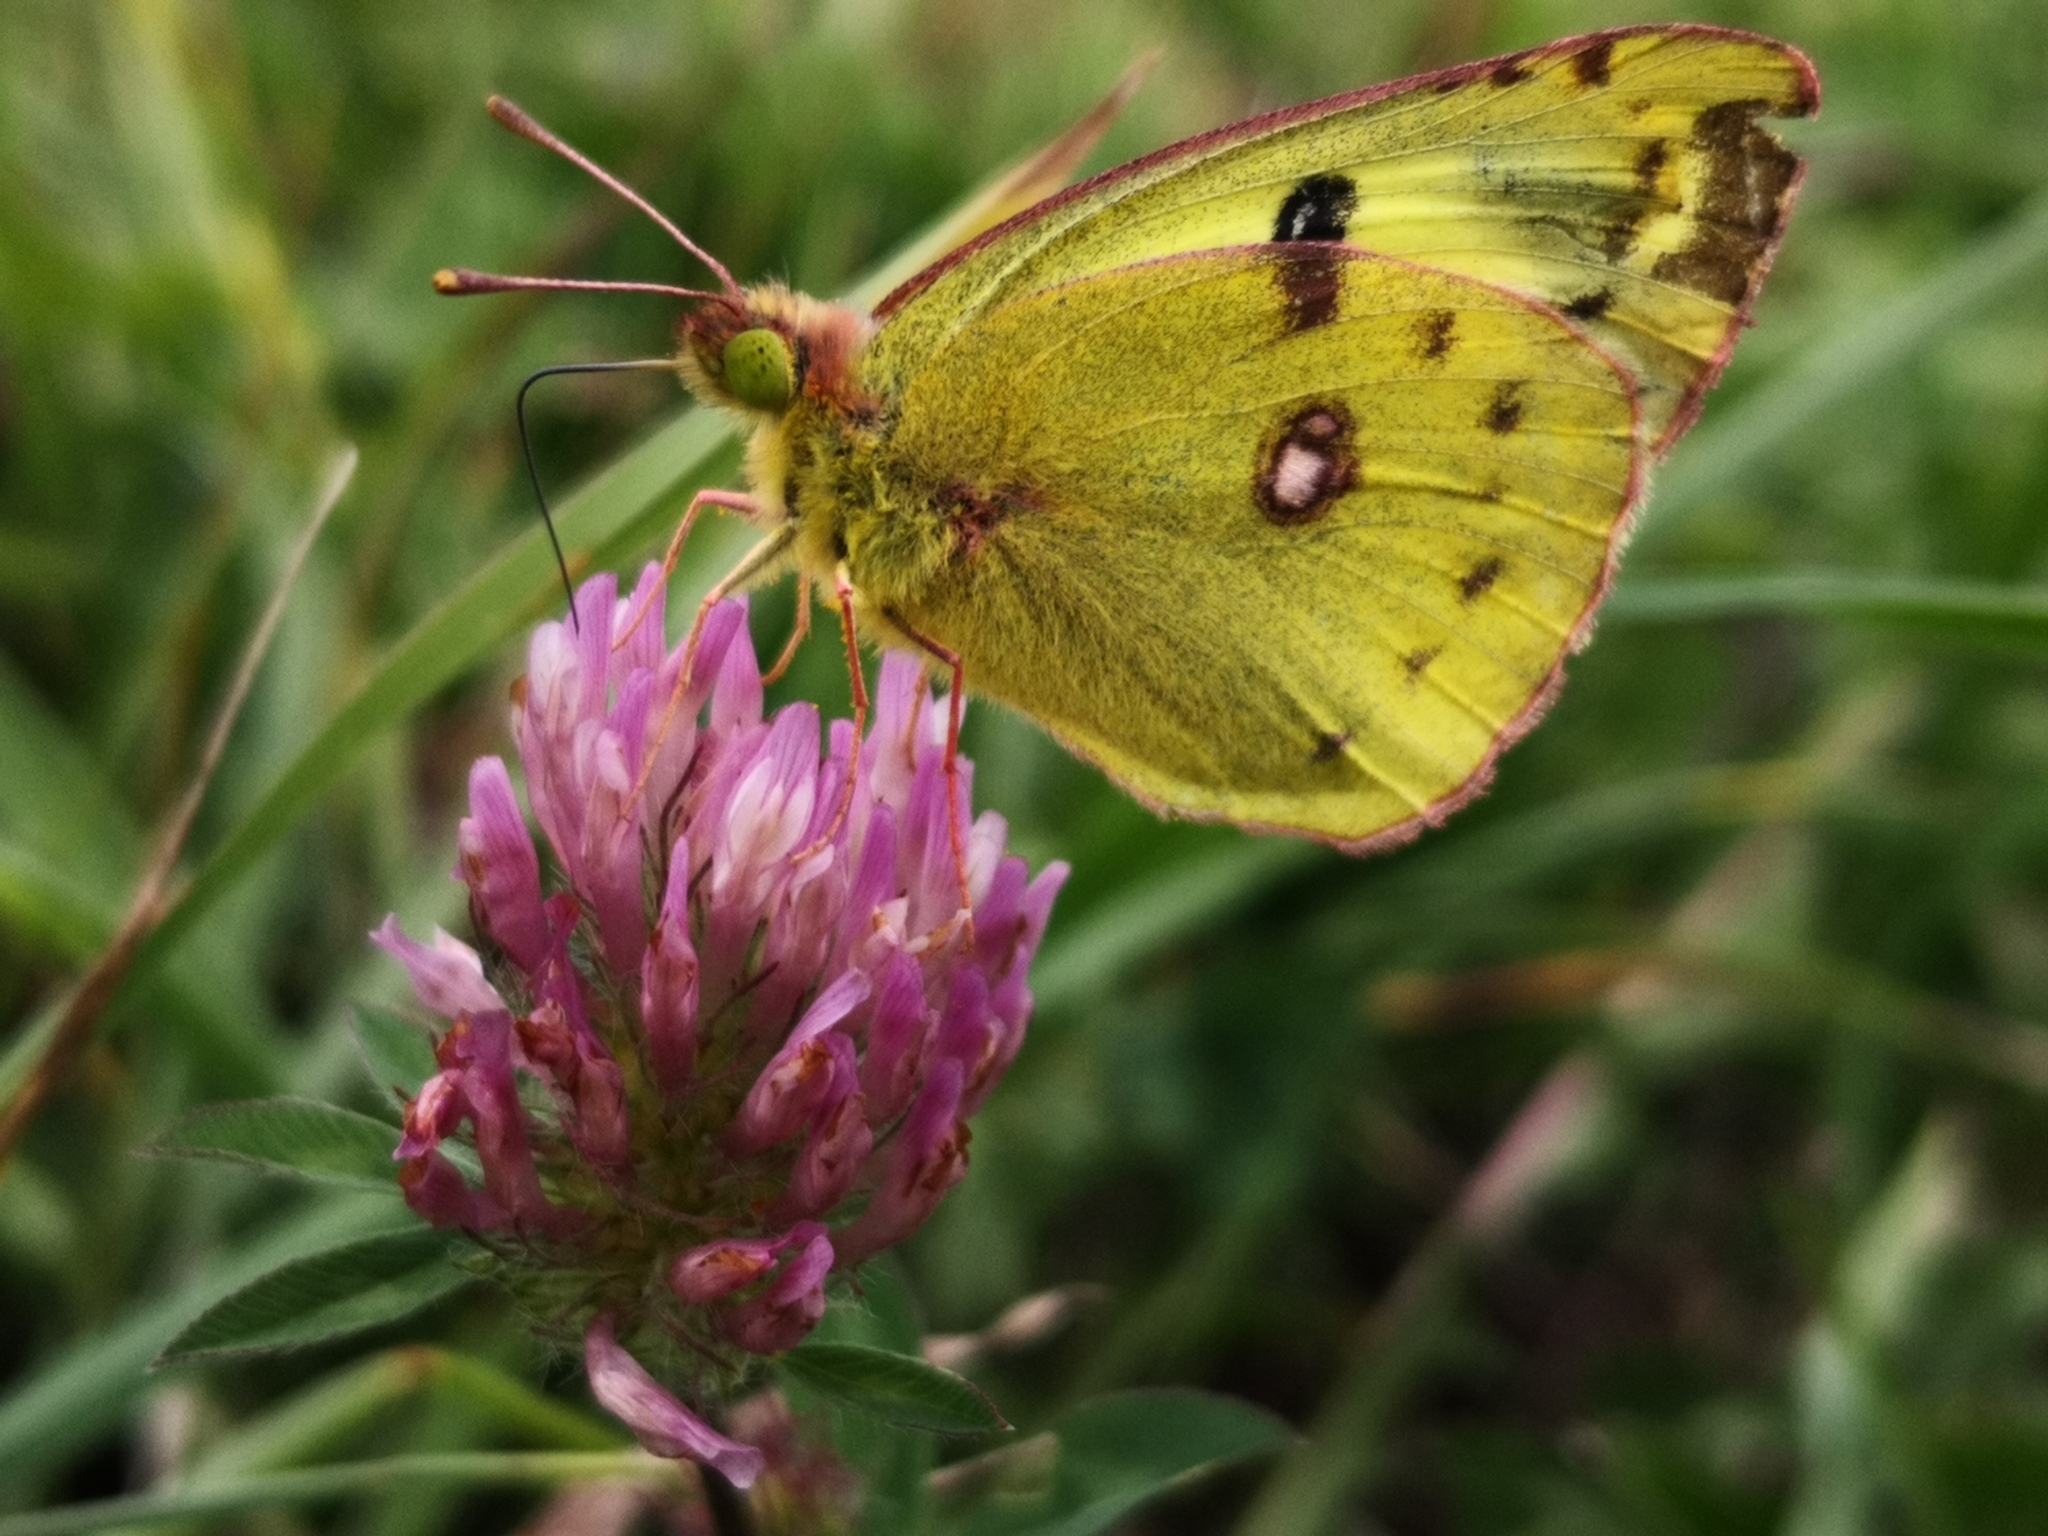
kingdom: Animalia
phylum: Arthropoda
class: Insecta
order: Lepidoptera
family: Pieridae
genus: Colias
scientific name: Colias croceus
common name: Clouded yellow
